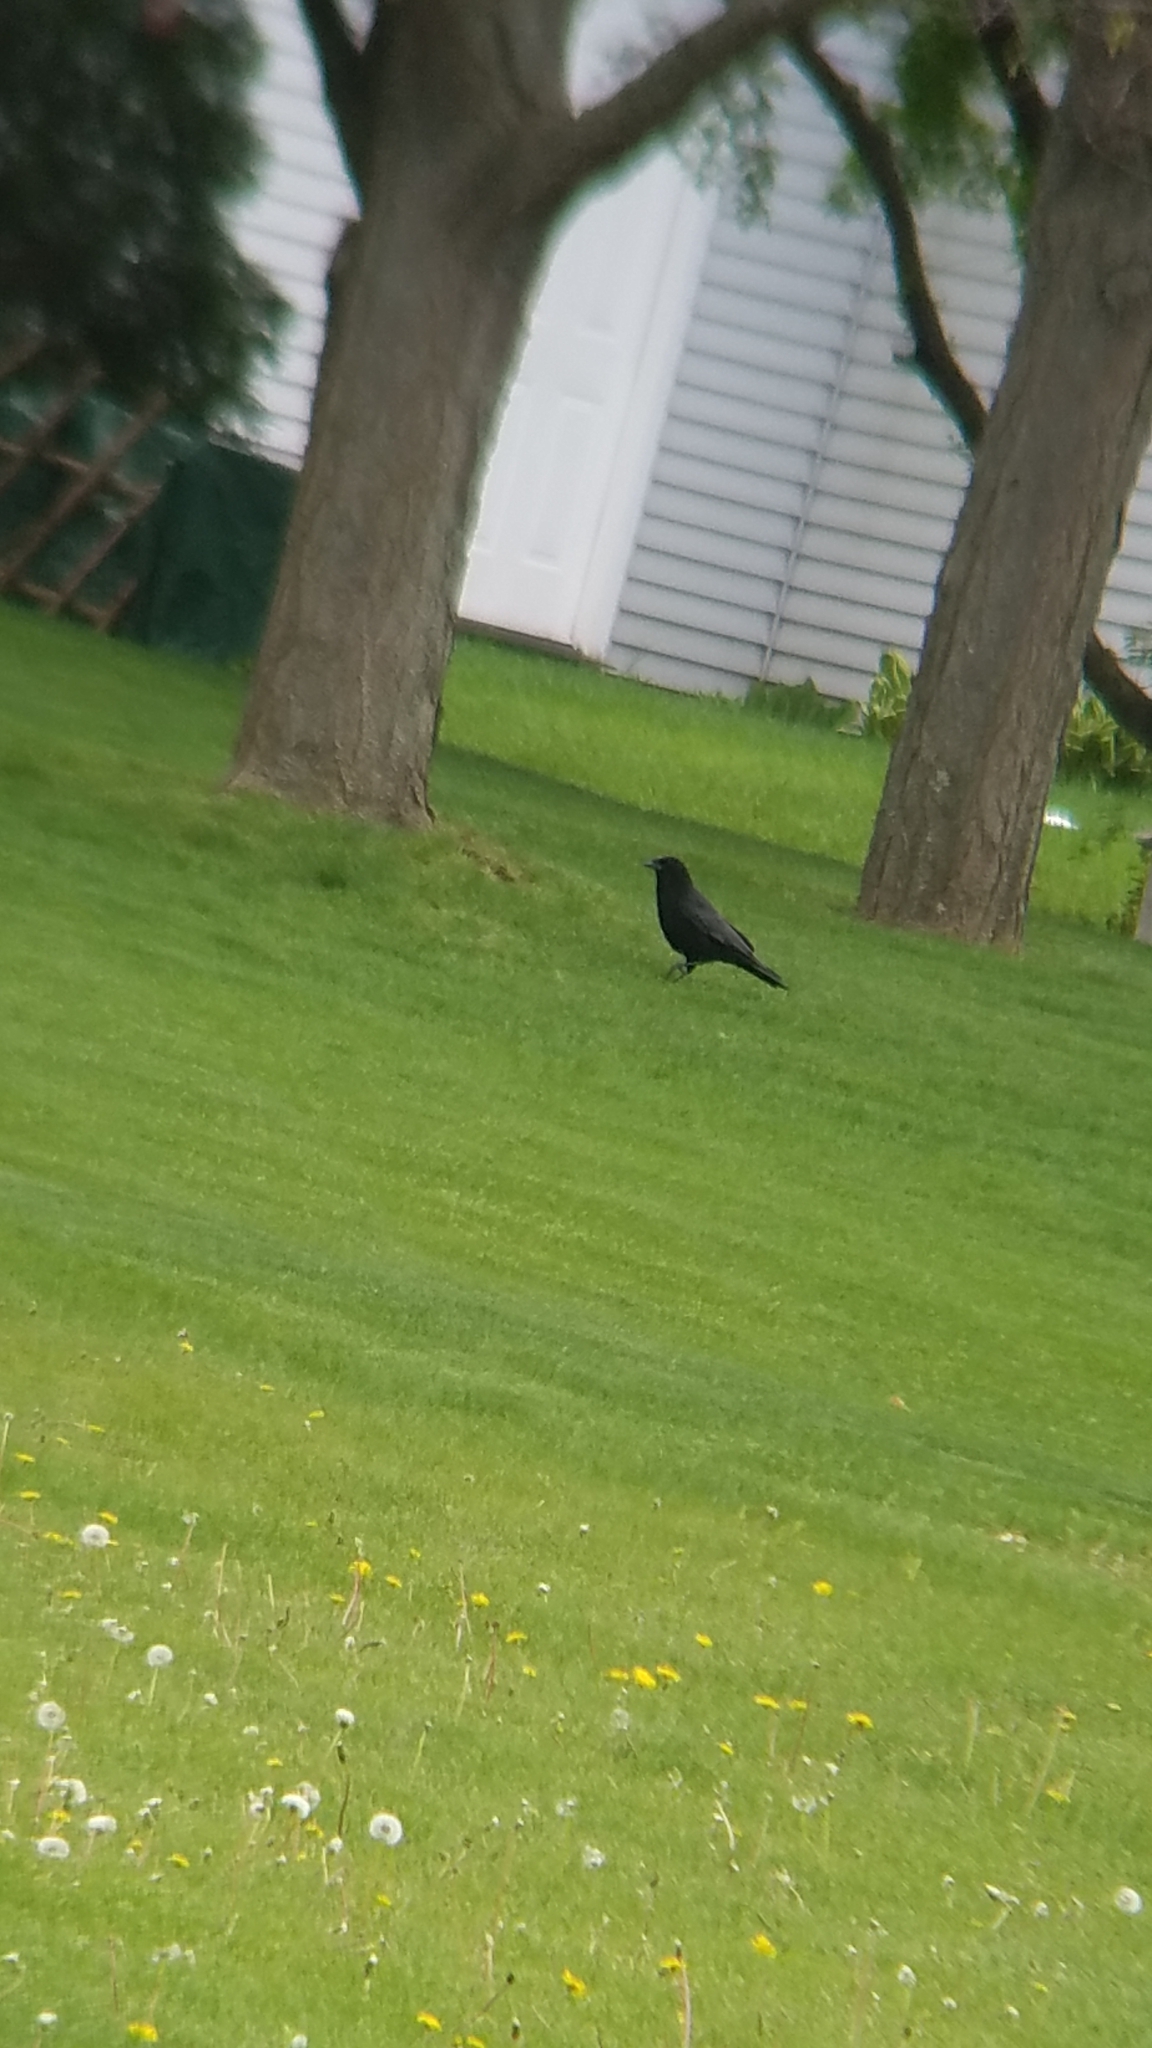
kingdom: Animalia
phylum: Chordata
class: Aves
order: Passeriformes
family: Corvidae
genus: Corvus
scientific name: Corvus brachyrhynchos
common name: American crow
